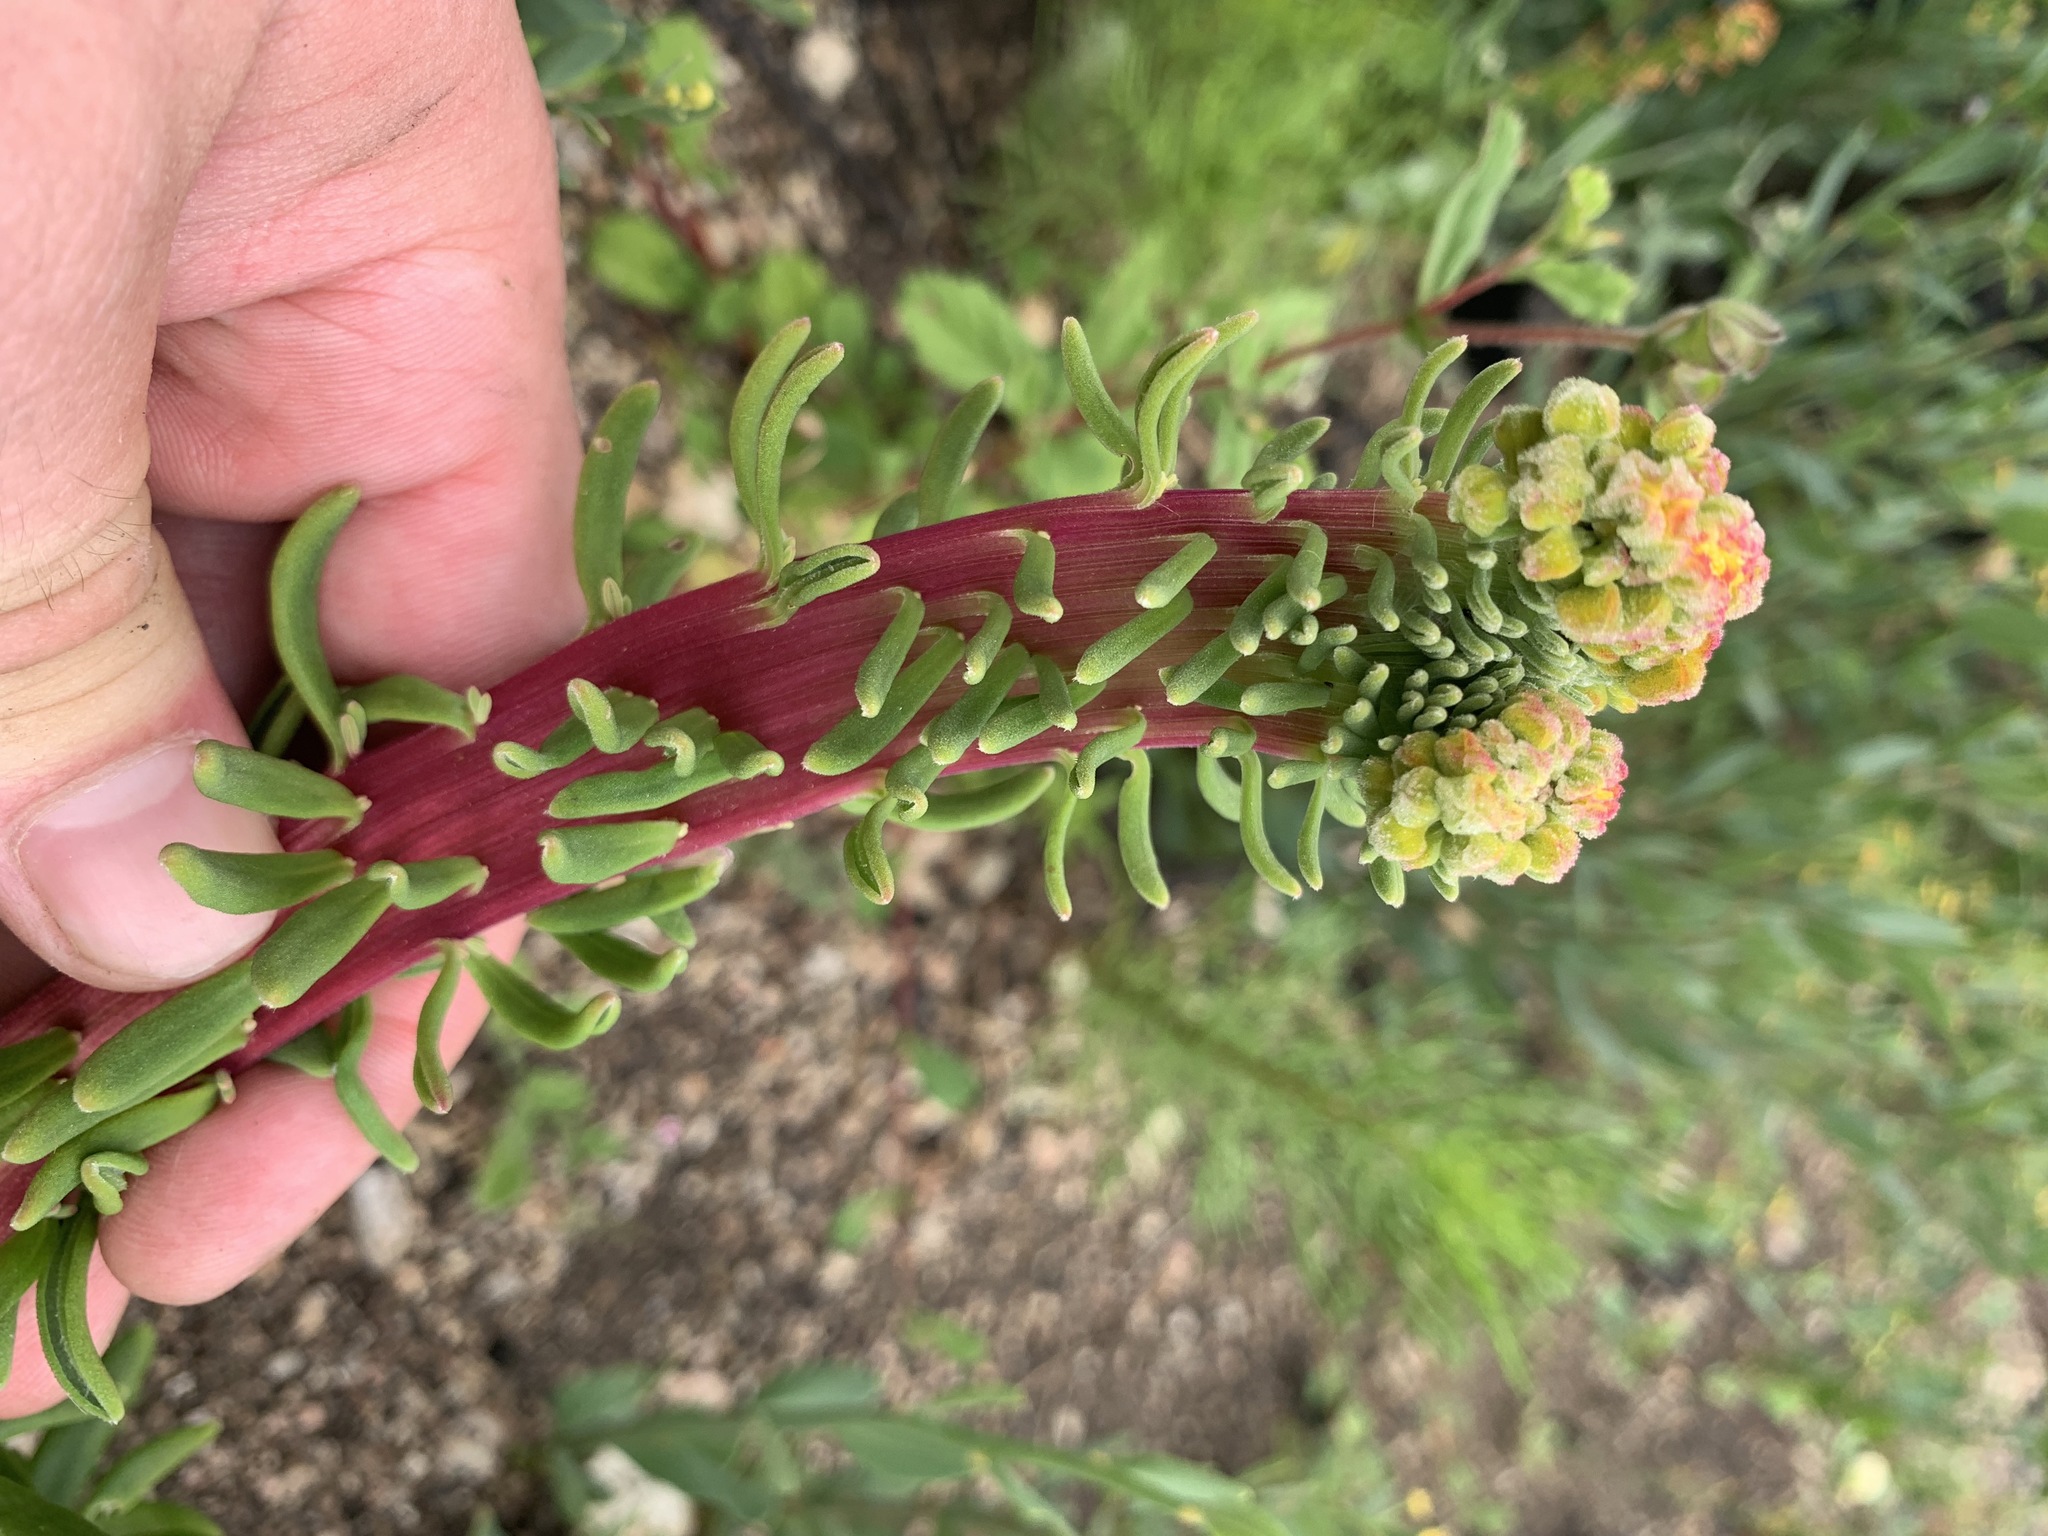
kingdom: Plantae
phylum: Tracheophyta
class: Magnoliopsida
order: Caryophyllales
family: Aizoaceae
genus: Tetragonia
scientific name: Tetragonia fruticosa
